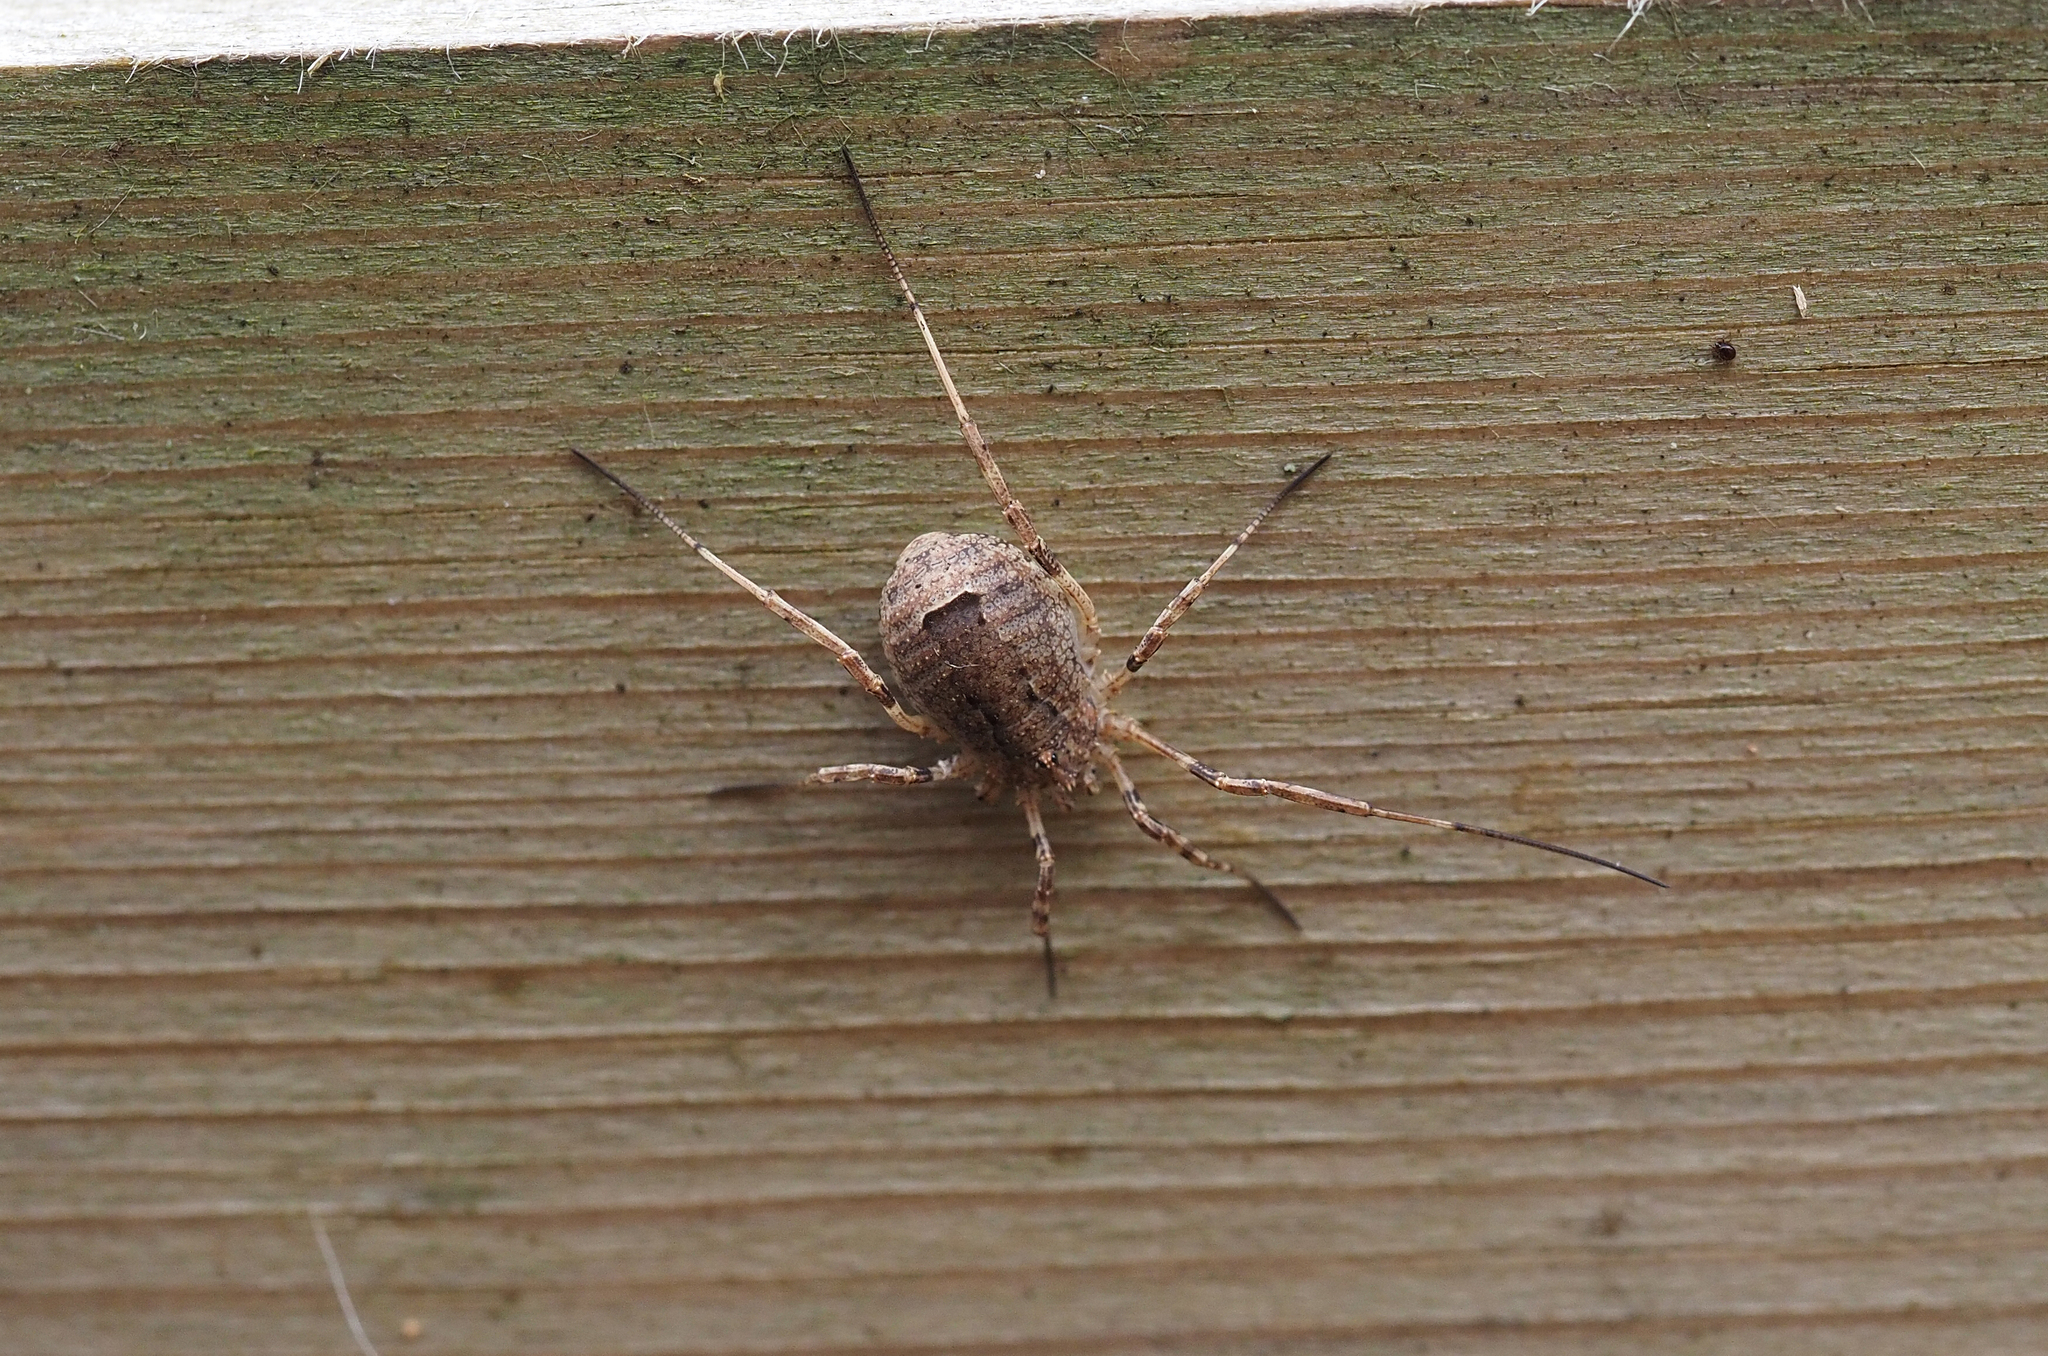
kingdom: Animalia
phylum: Arthropoda
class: Arachnida
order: Opiliones
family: Phalangiidae
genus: Odiellus
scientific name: Odiellus spinosus
